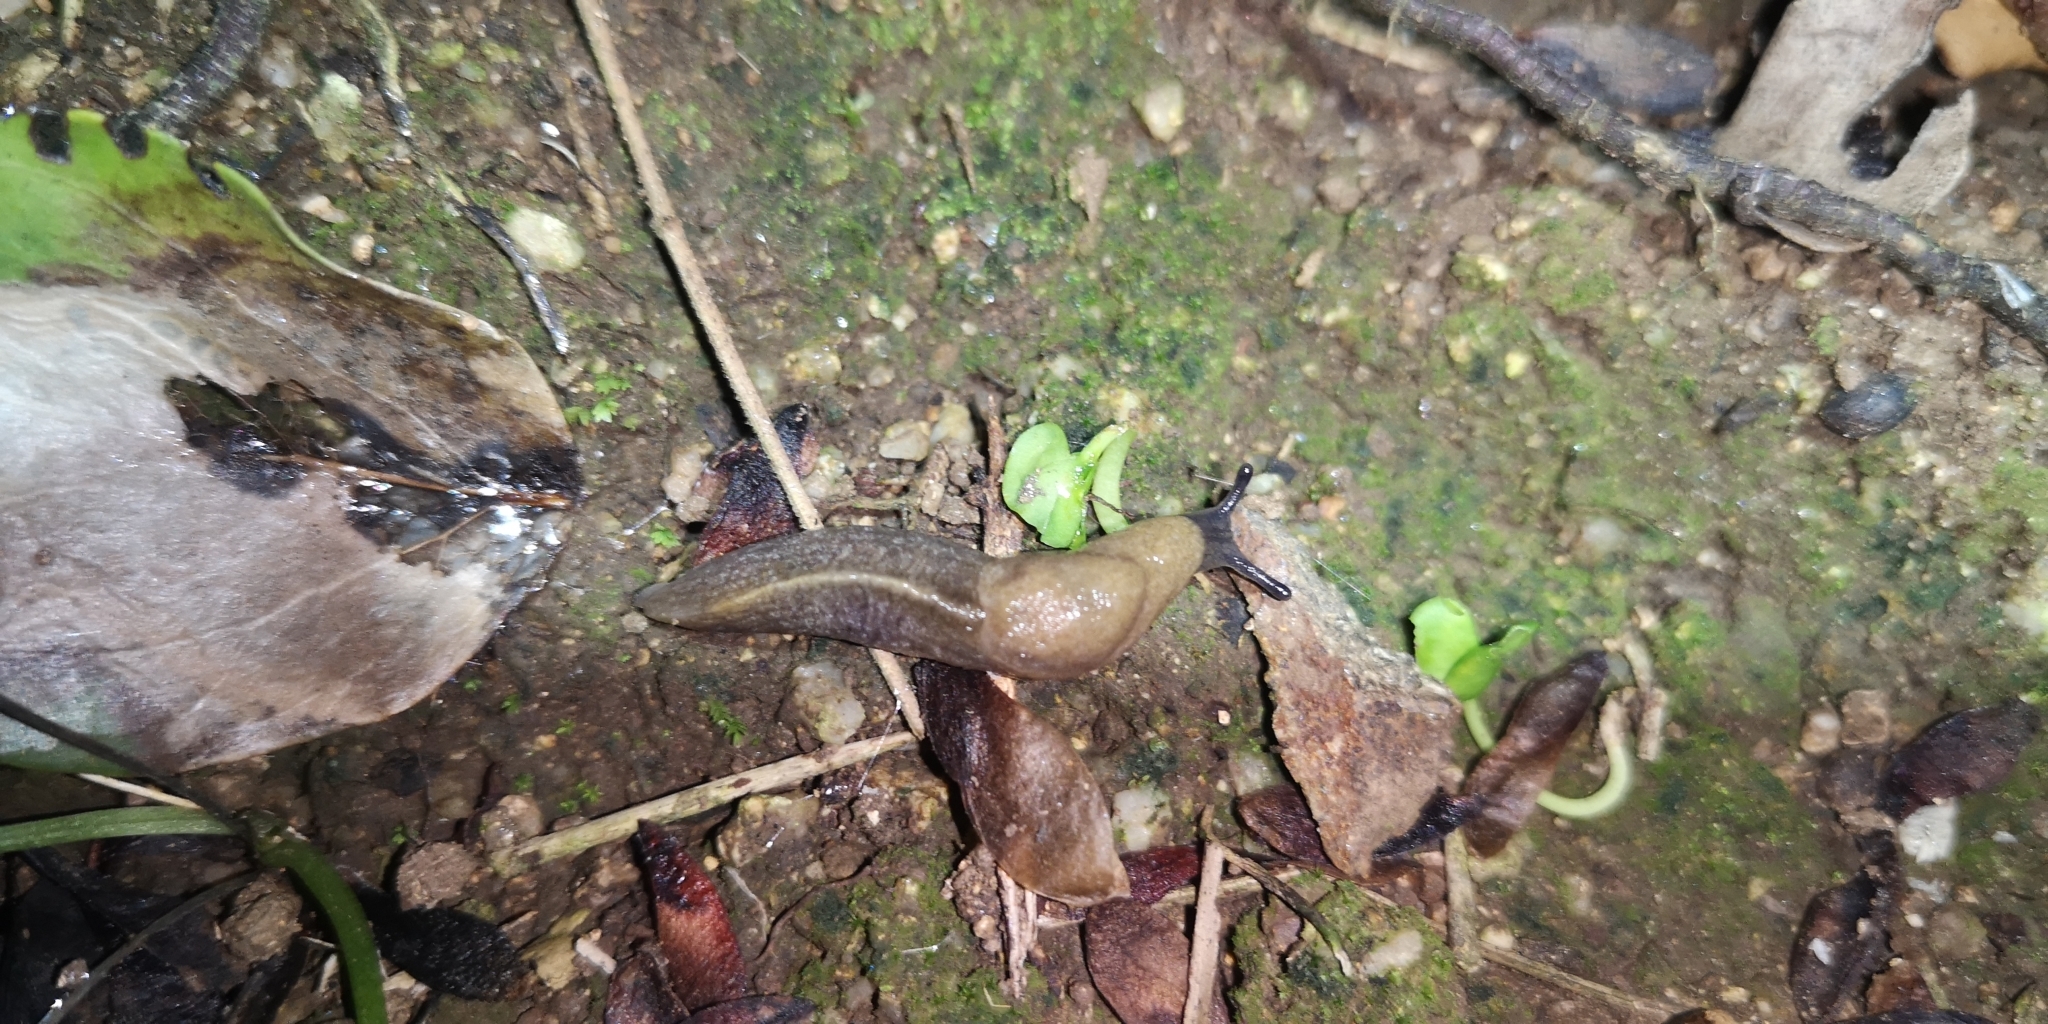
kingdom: Animalia
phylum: Mollusca
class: Gastropoda
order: Stylommatophora
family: Milacidae
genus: Milax
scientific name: Milax gagates
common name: Greenhouse slug
